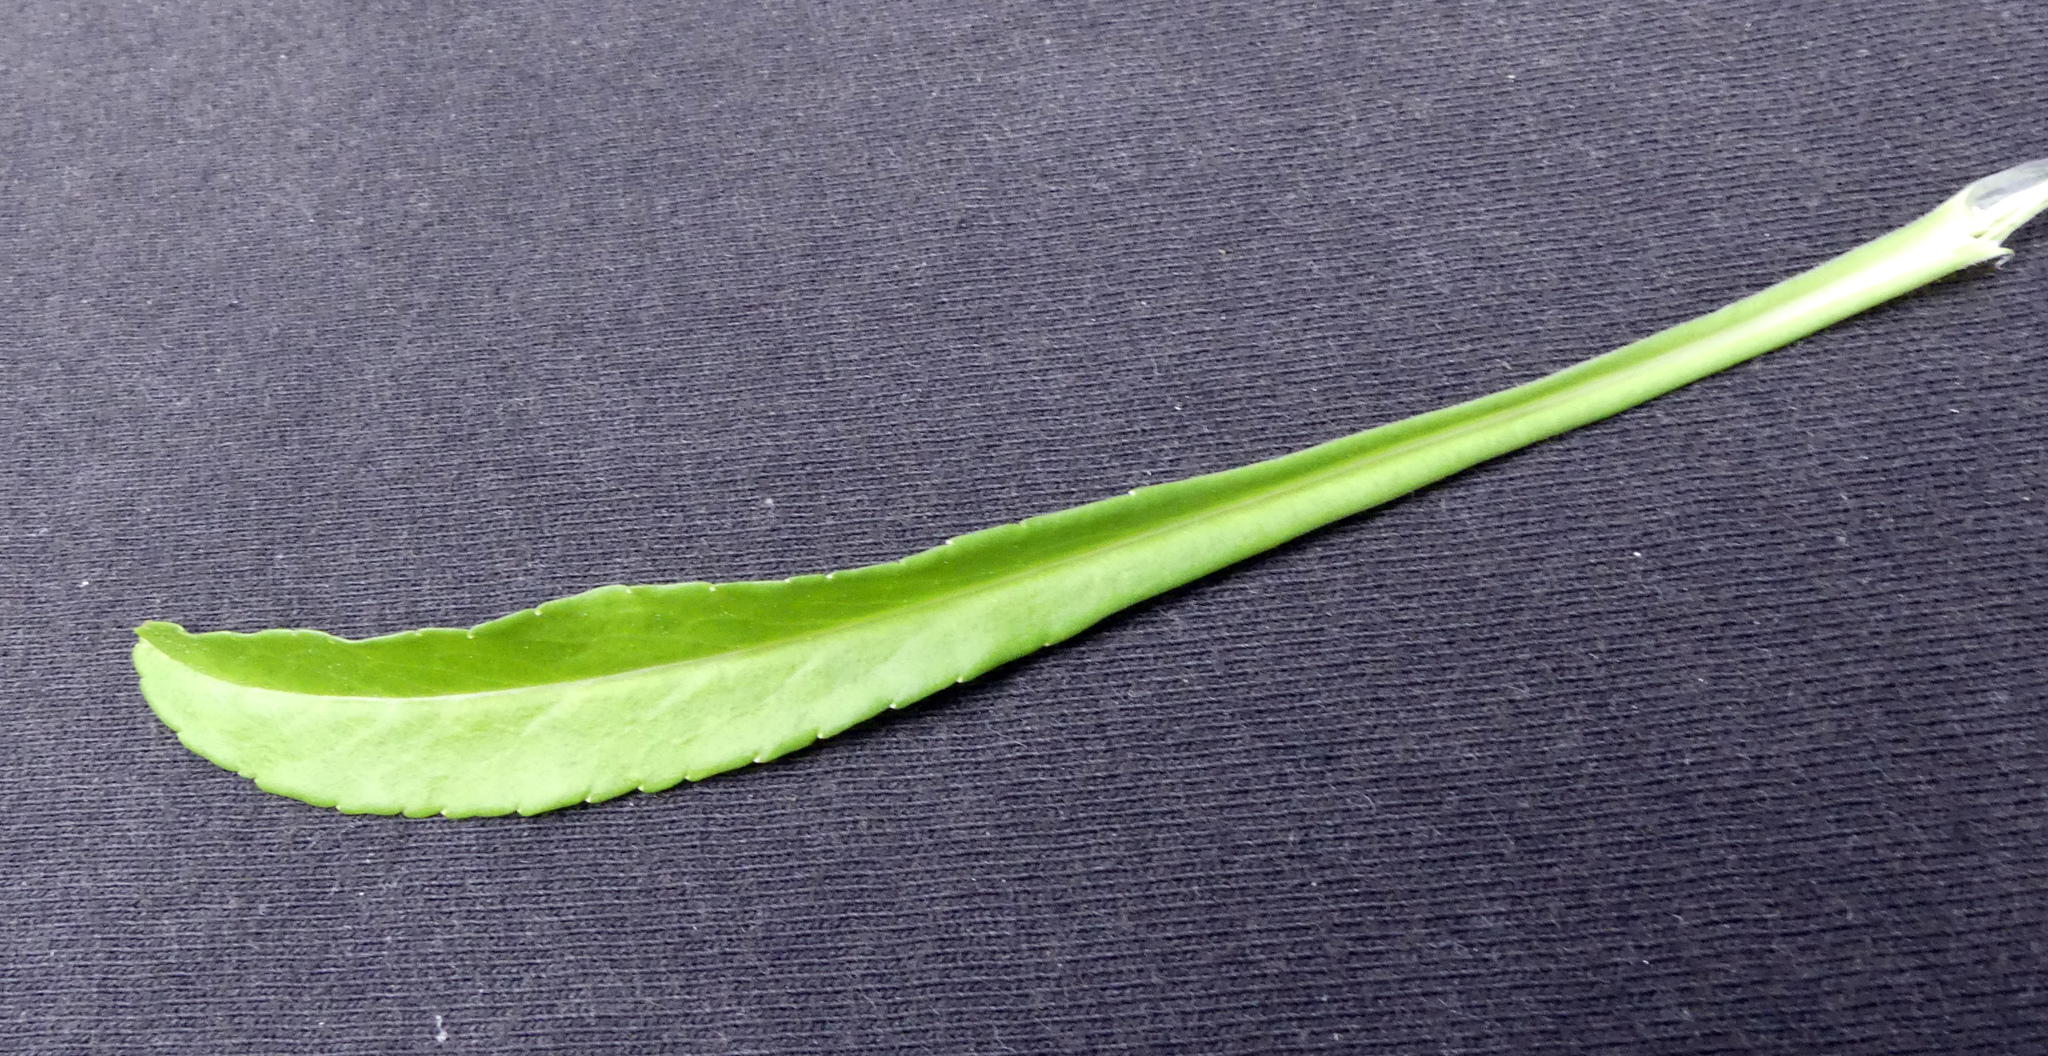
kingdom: Plantae
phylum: Tracheophyta
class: Magnoliopsida
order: Asterales
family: Campanulaceae
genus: Campanula
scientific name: Campanula persicifolia
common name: Peach-leaved bellflower
